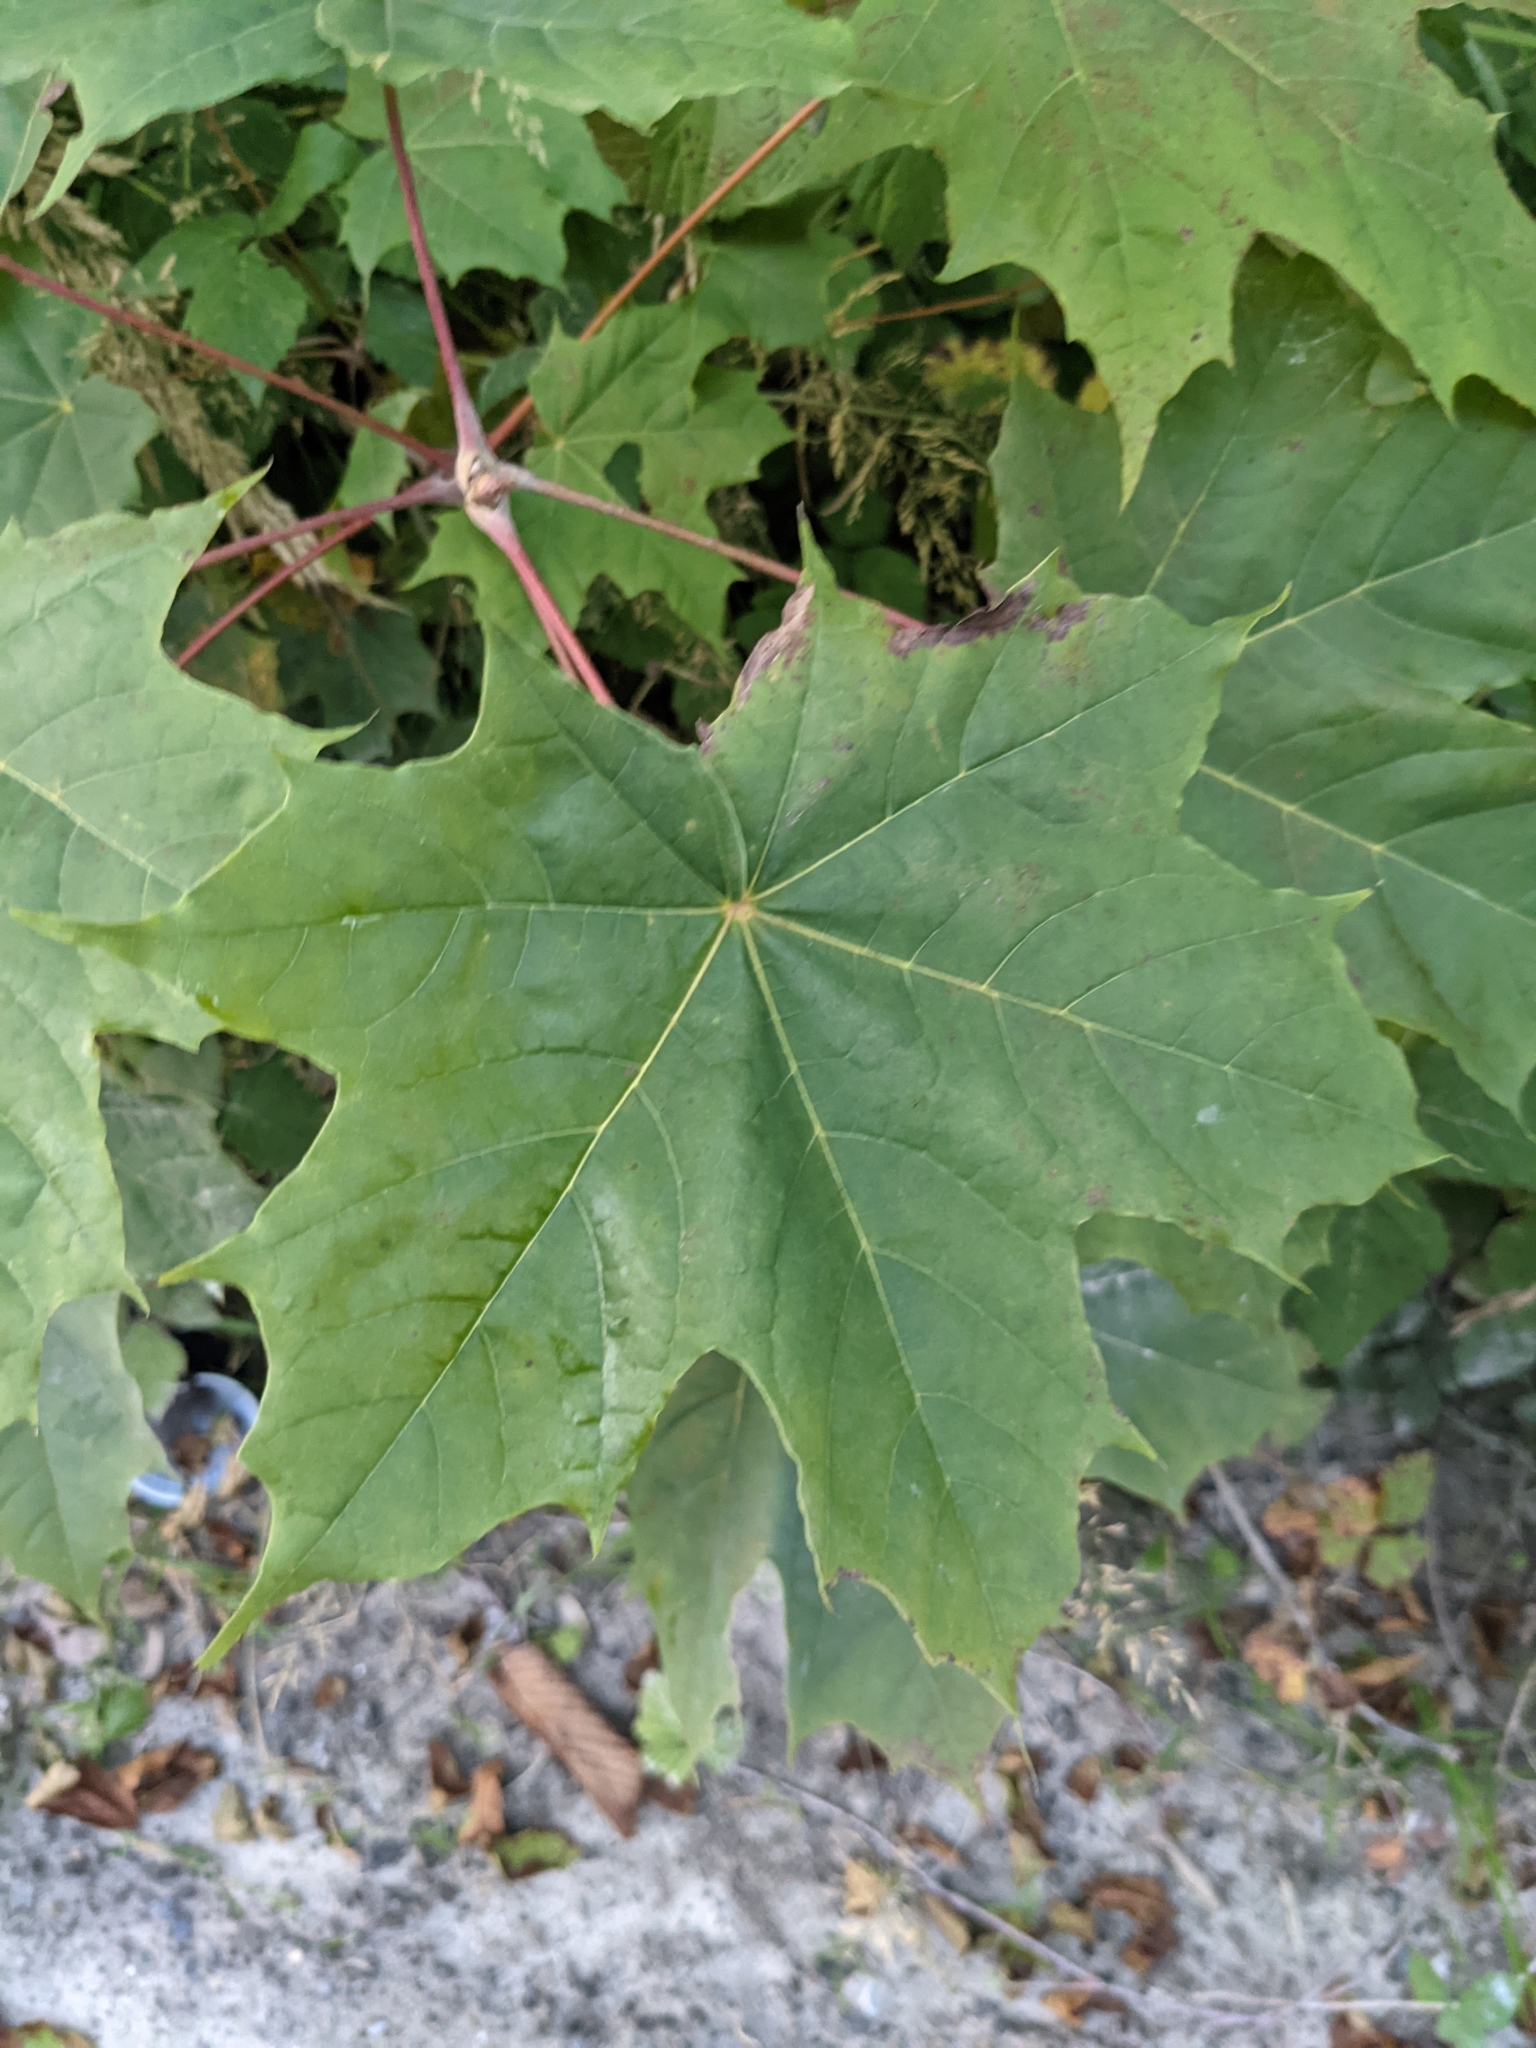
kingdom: Plantae
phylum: Tracheophyta
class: Magnoliopsida
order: Sapindales
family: Sapindaceae
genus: Acer
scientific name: Acer platanoides
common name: Norway maple
